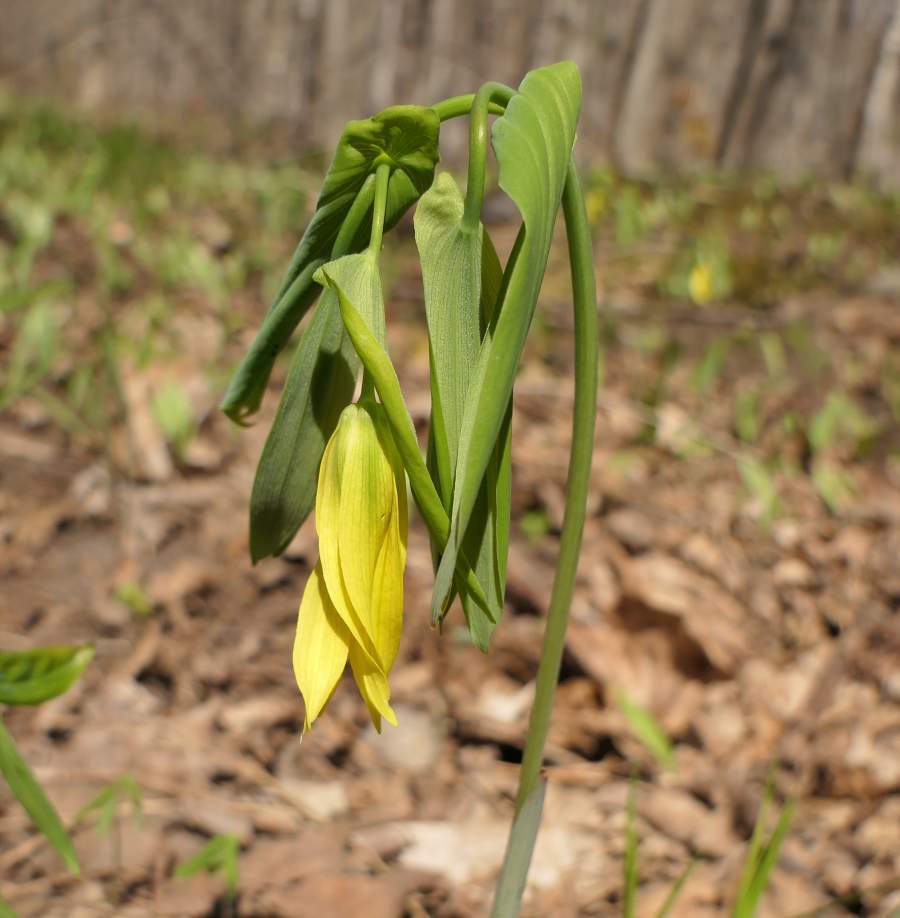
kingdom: Plantae
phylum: Tracheophyta
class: Liliopsida
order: Liliales
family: Colchicaceae
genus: Uvularia
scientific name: Uvularia grandiflora
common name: Bellwort
